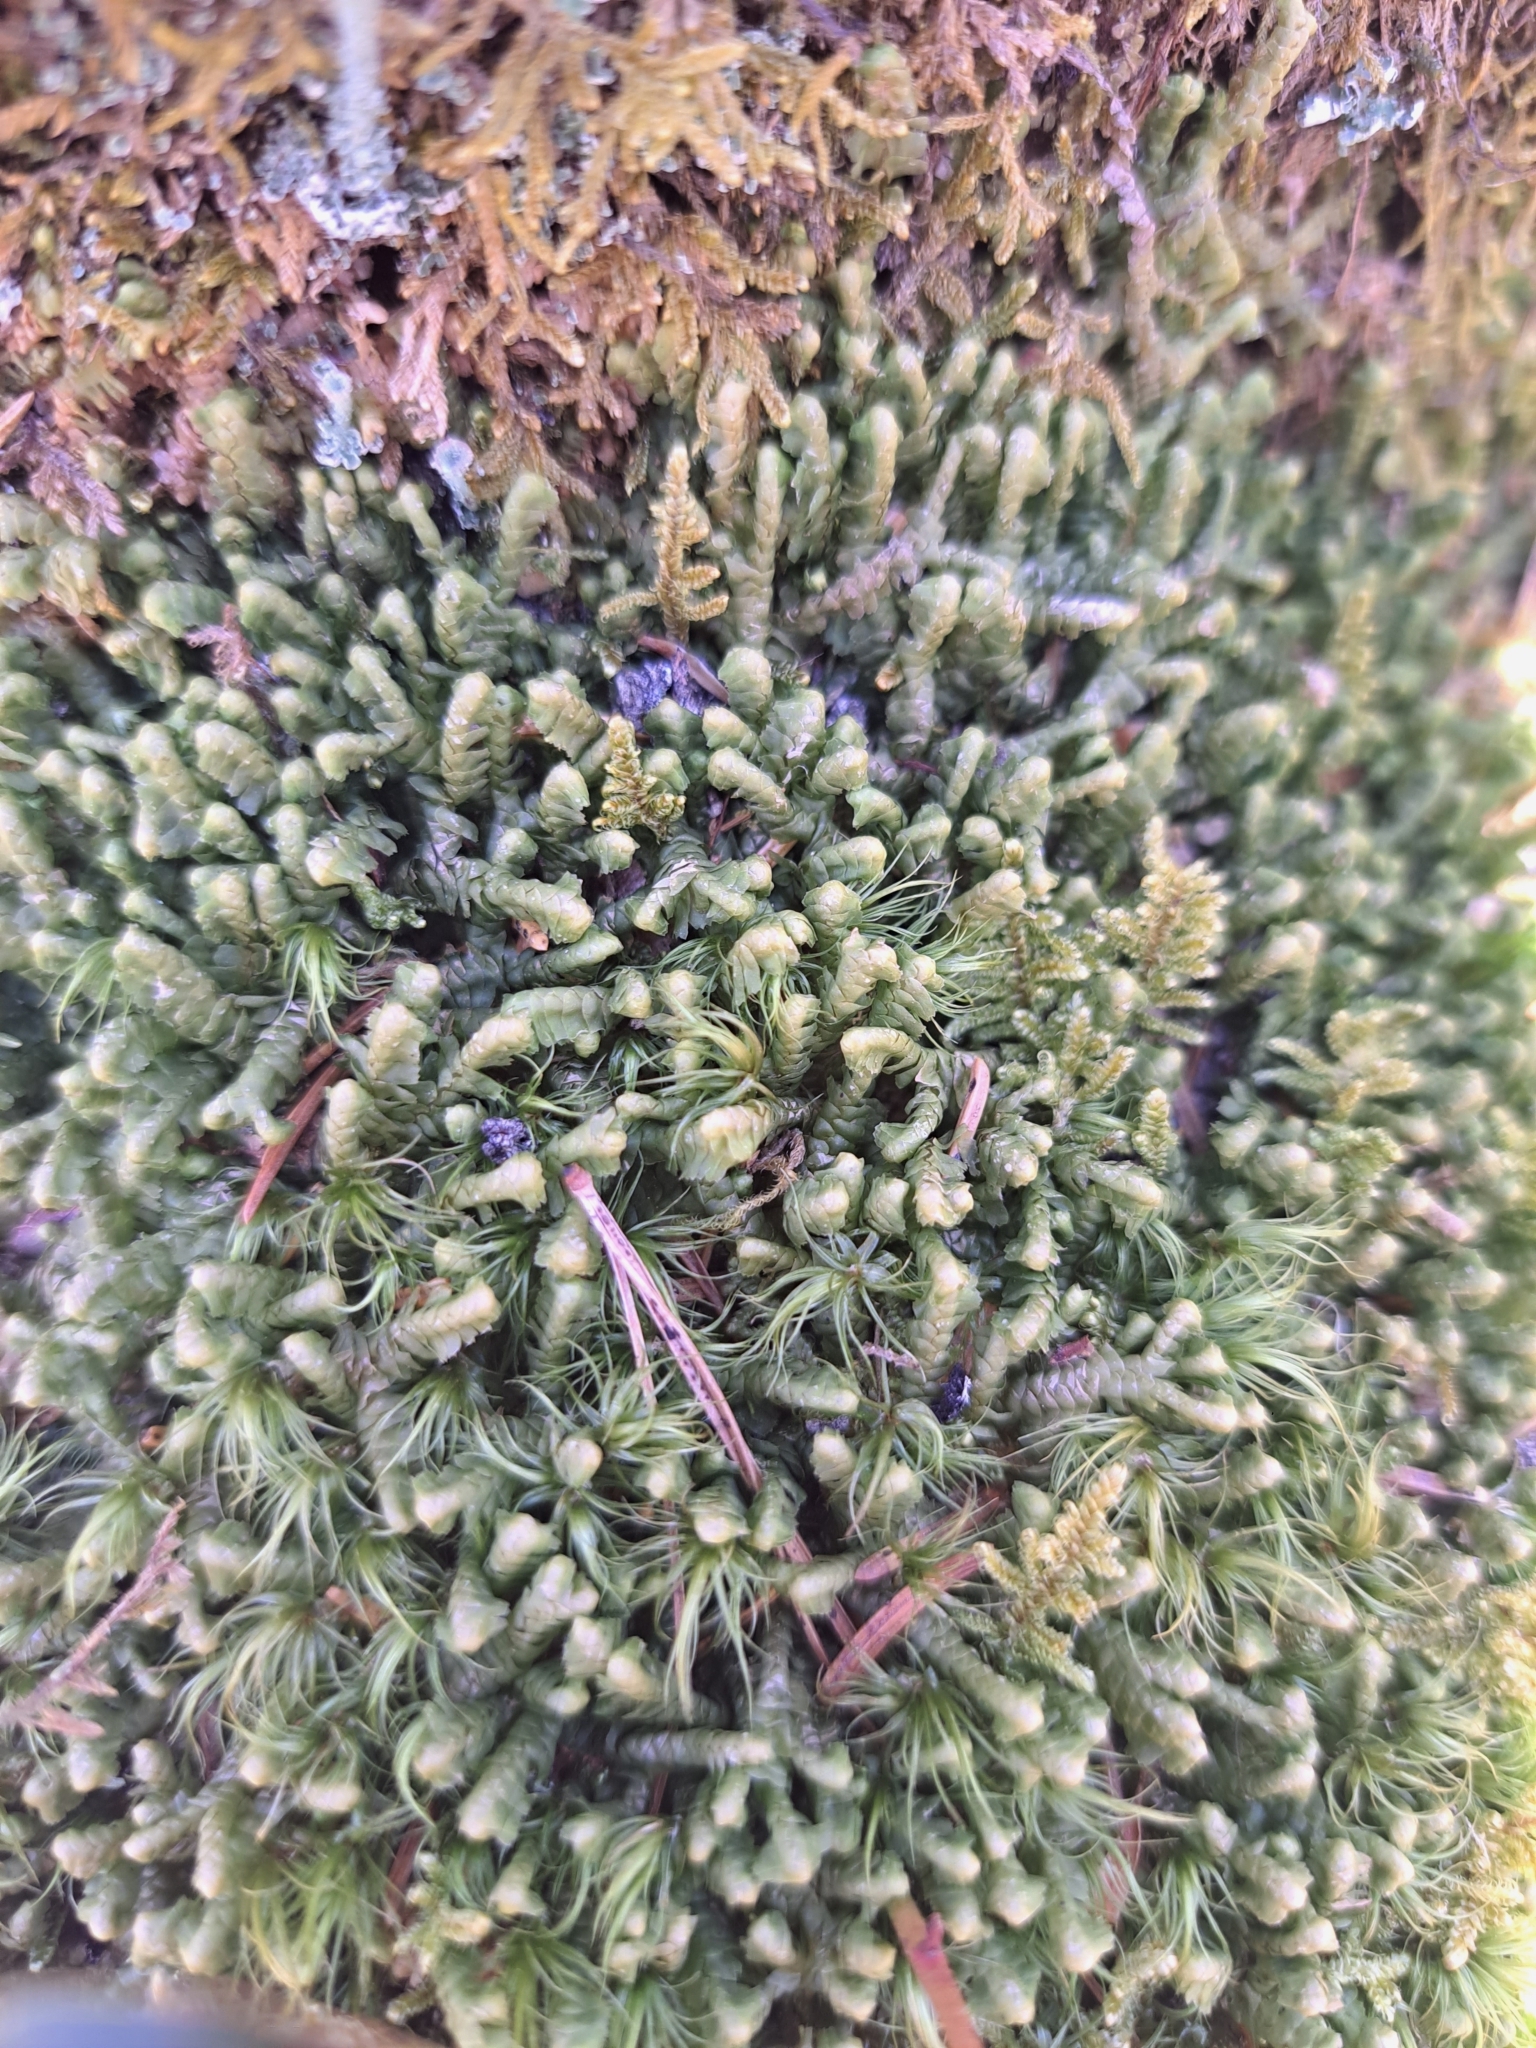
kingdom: Plantae
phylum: Marchantiophyta
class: Jungermanniopsida
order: Jungermanniales
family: Lepidoziaceae
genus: Bazzania
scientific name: Bazzania trilobata
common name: Three-lobed whipwort
